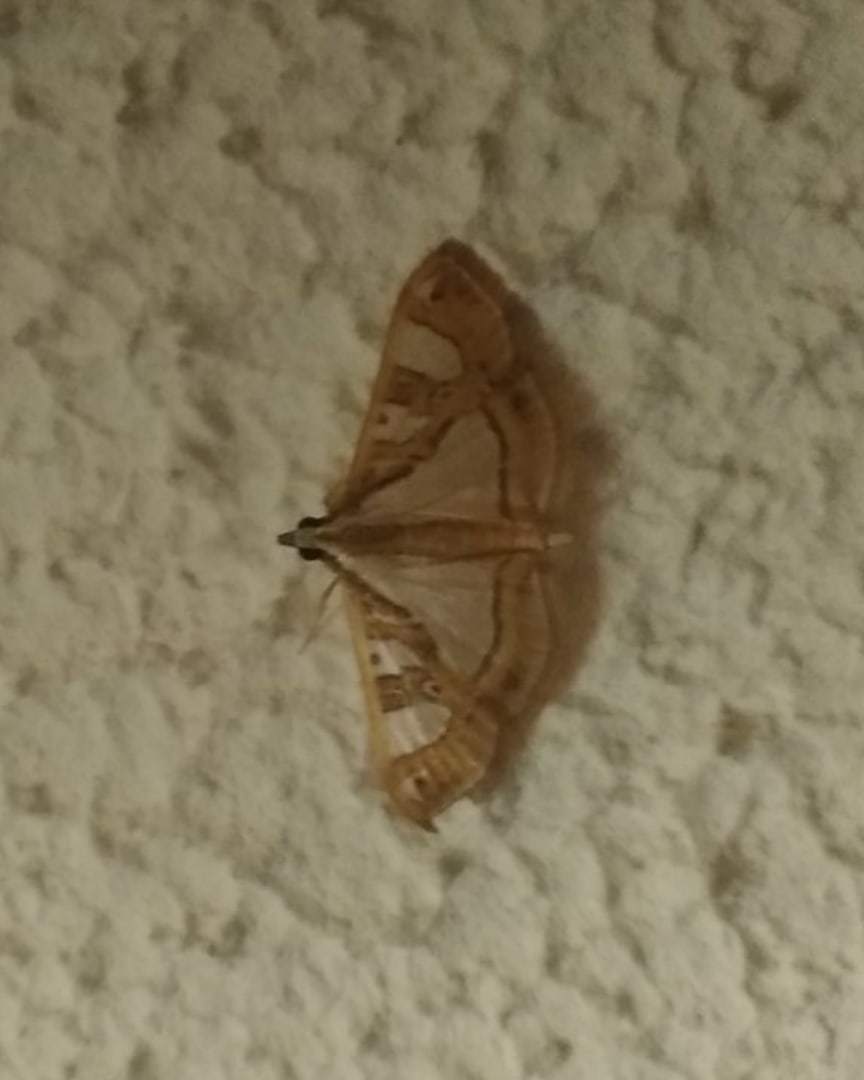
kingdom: Animalia
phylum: Arthropoda
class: Insecta
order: Lepidoptera
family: Crambidae
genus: Glyphodes
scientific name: Glyphodes pyloalis
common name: Lesser mulberry snout moth
